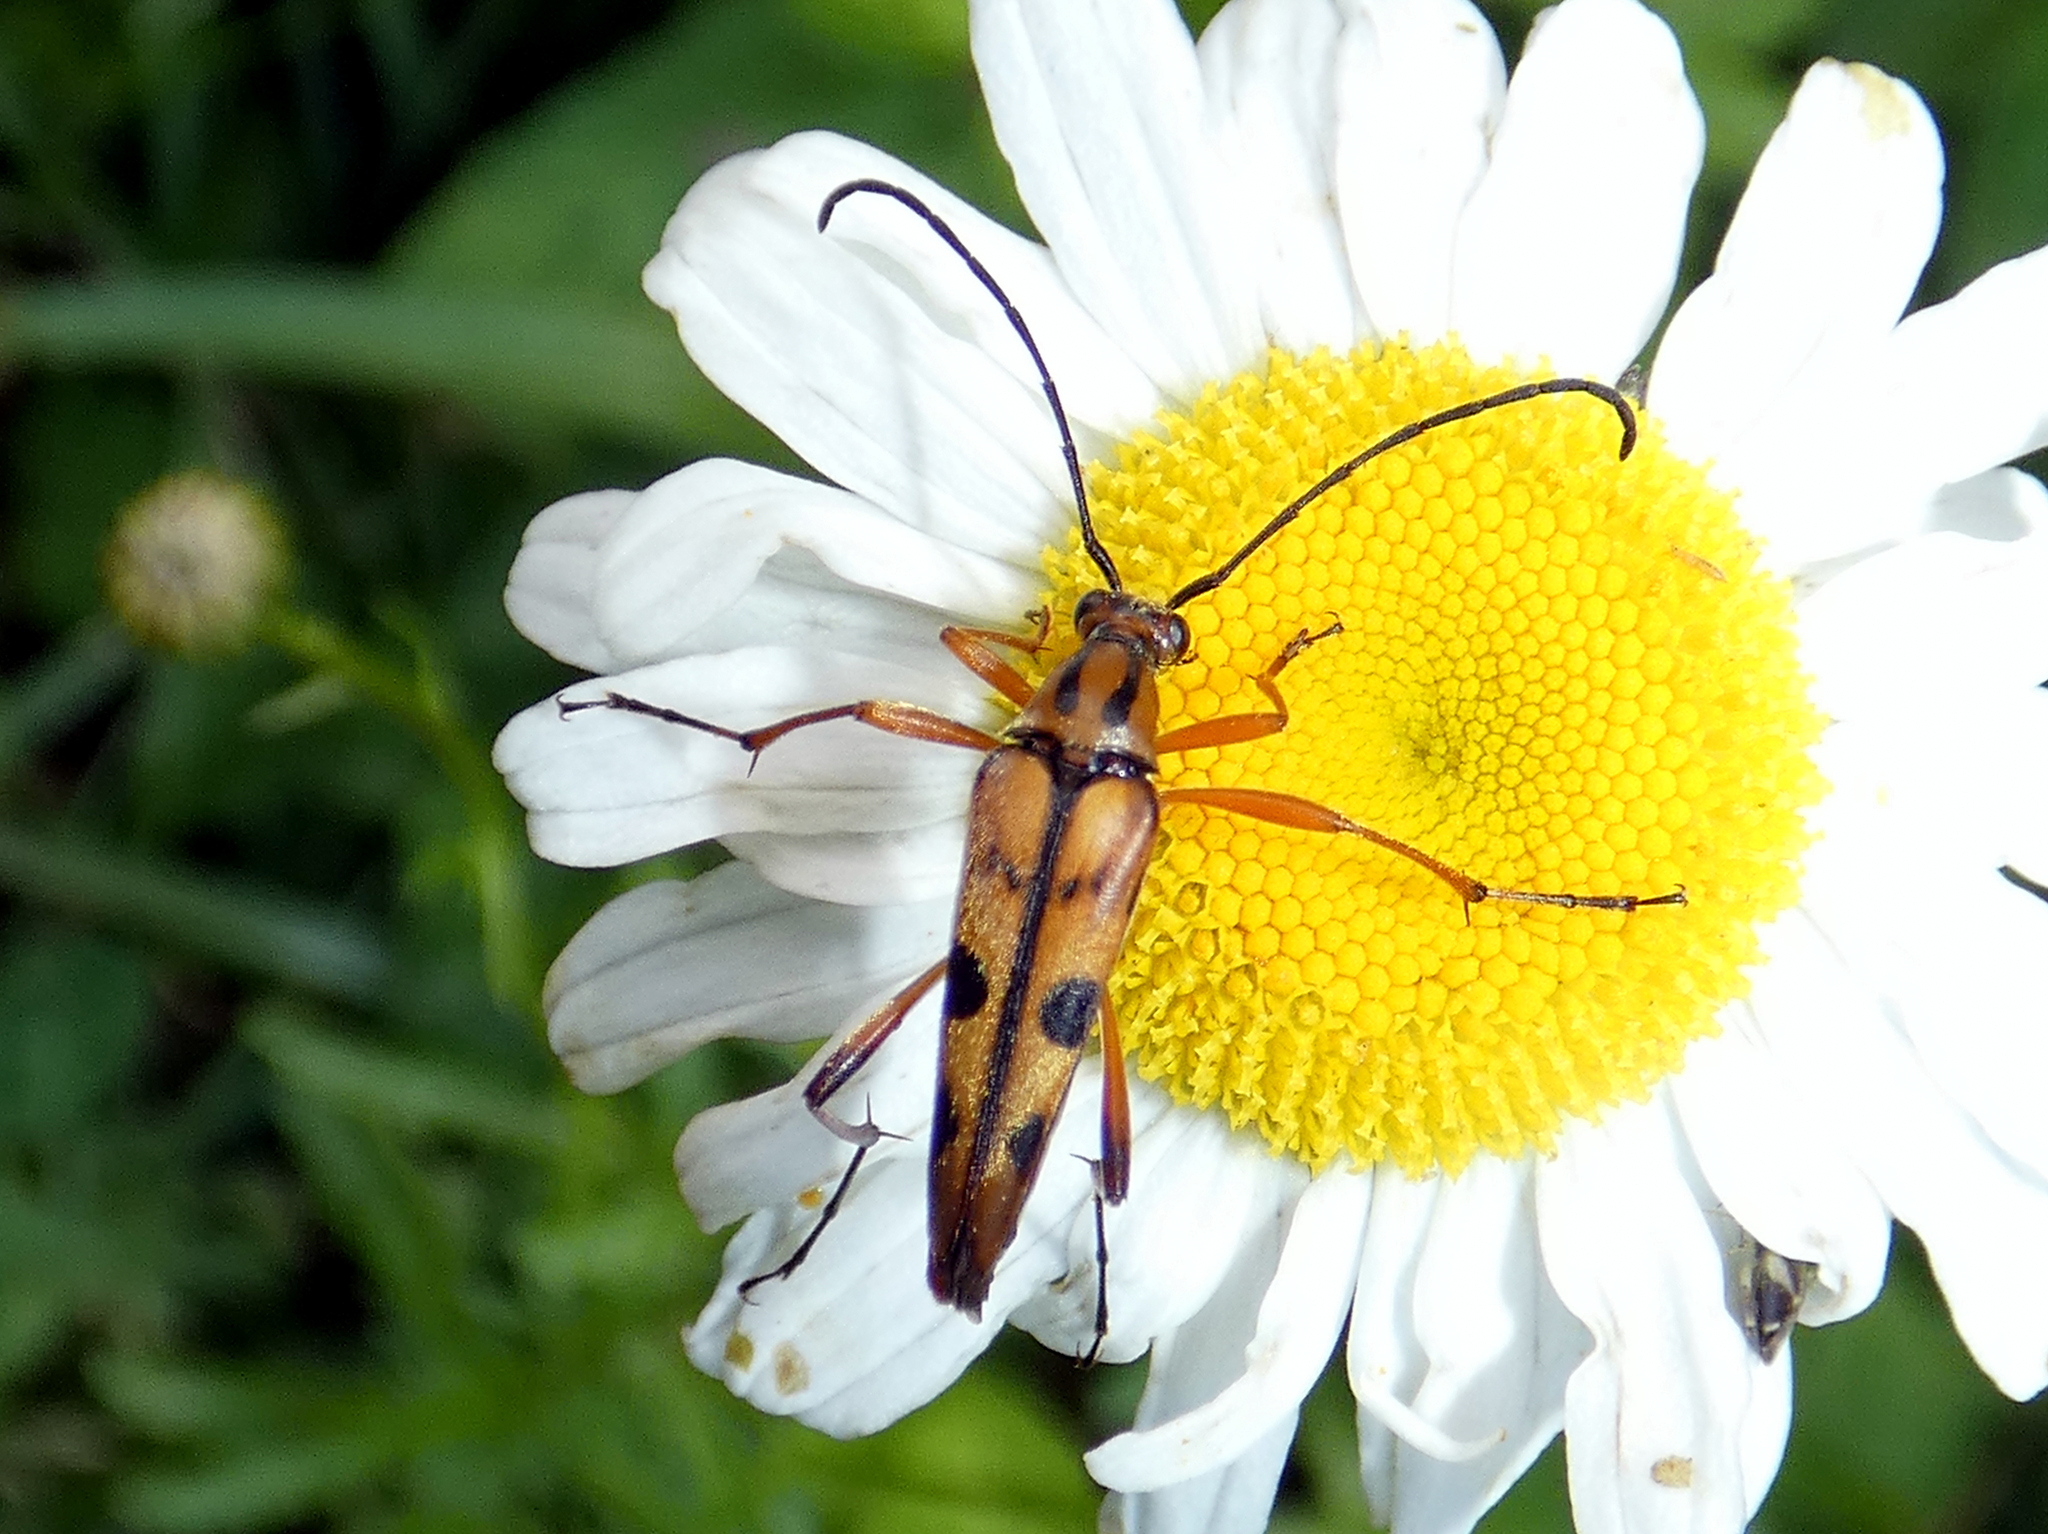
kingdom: Animalia
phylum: Arthropoda
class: Insecta
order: Coleoptera
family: Cerambycidae
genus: Strangalia
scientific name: Strangalia famelica
